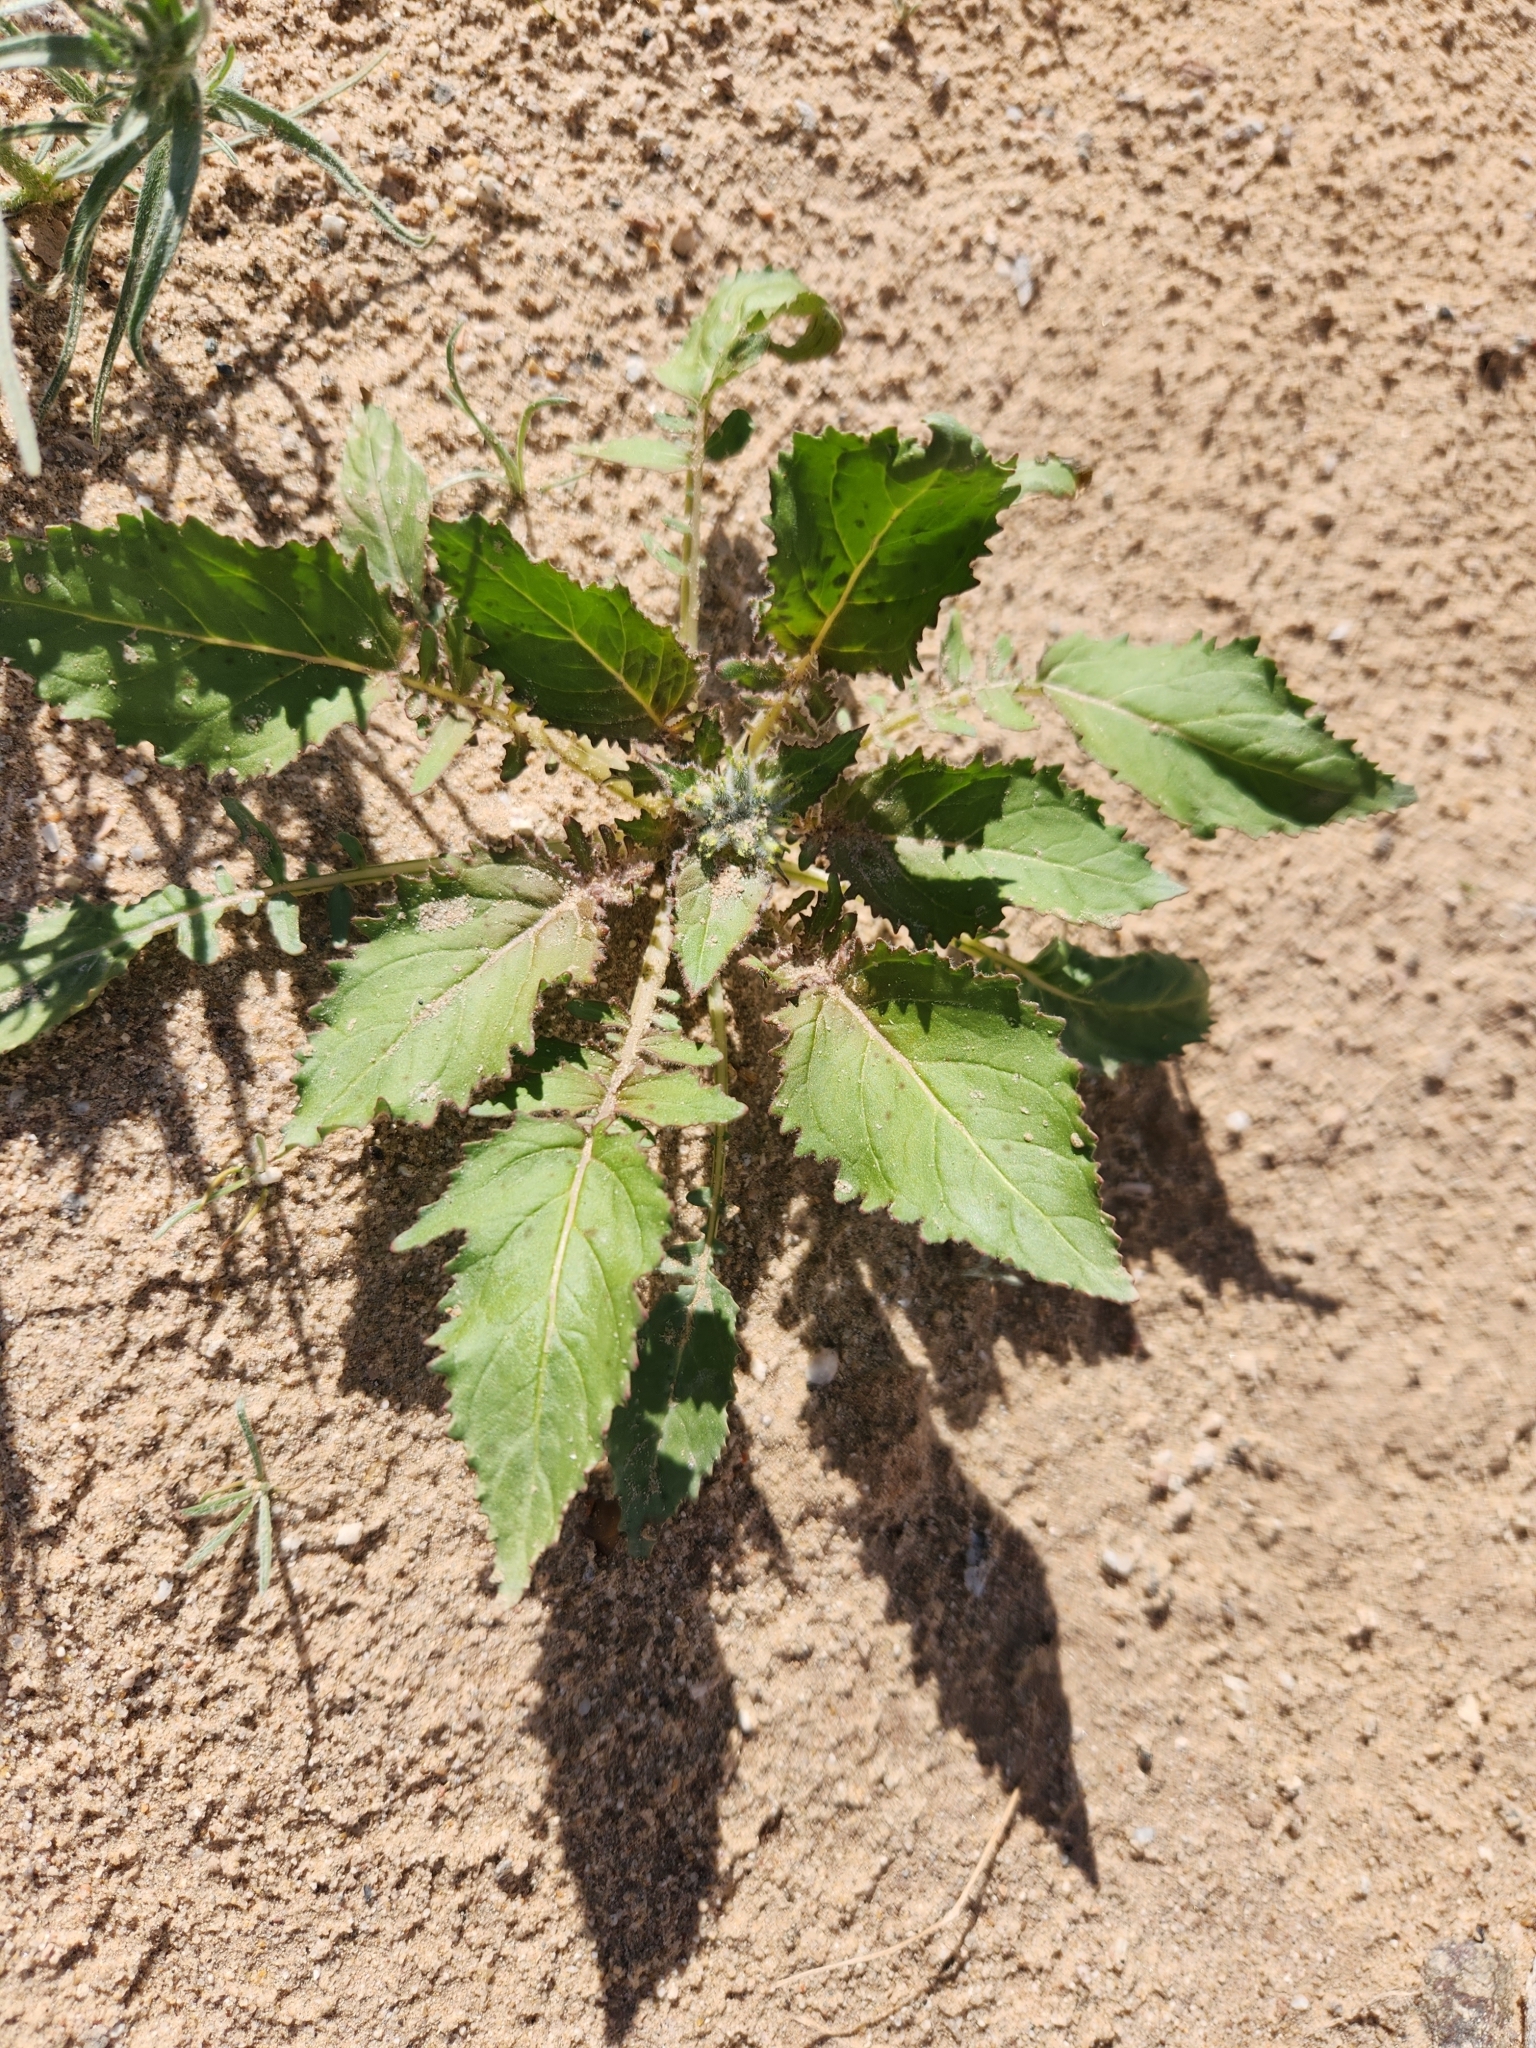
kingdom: Plantae
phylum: Tracheophyta
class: Magnoliopsida
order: Myrtales
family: Onagraceae
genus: Chylismia
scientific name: Chylismia claviformis
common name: Browneyes
